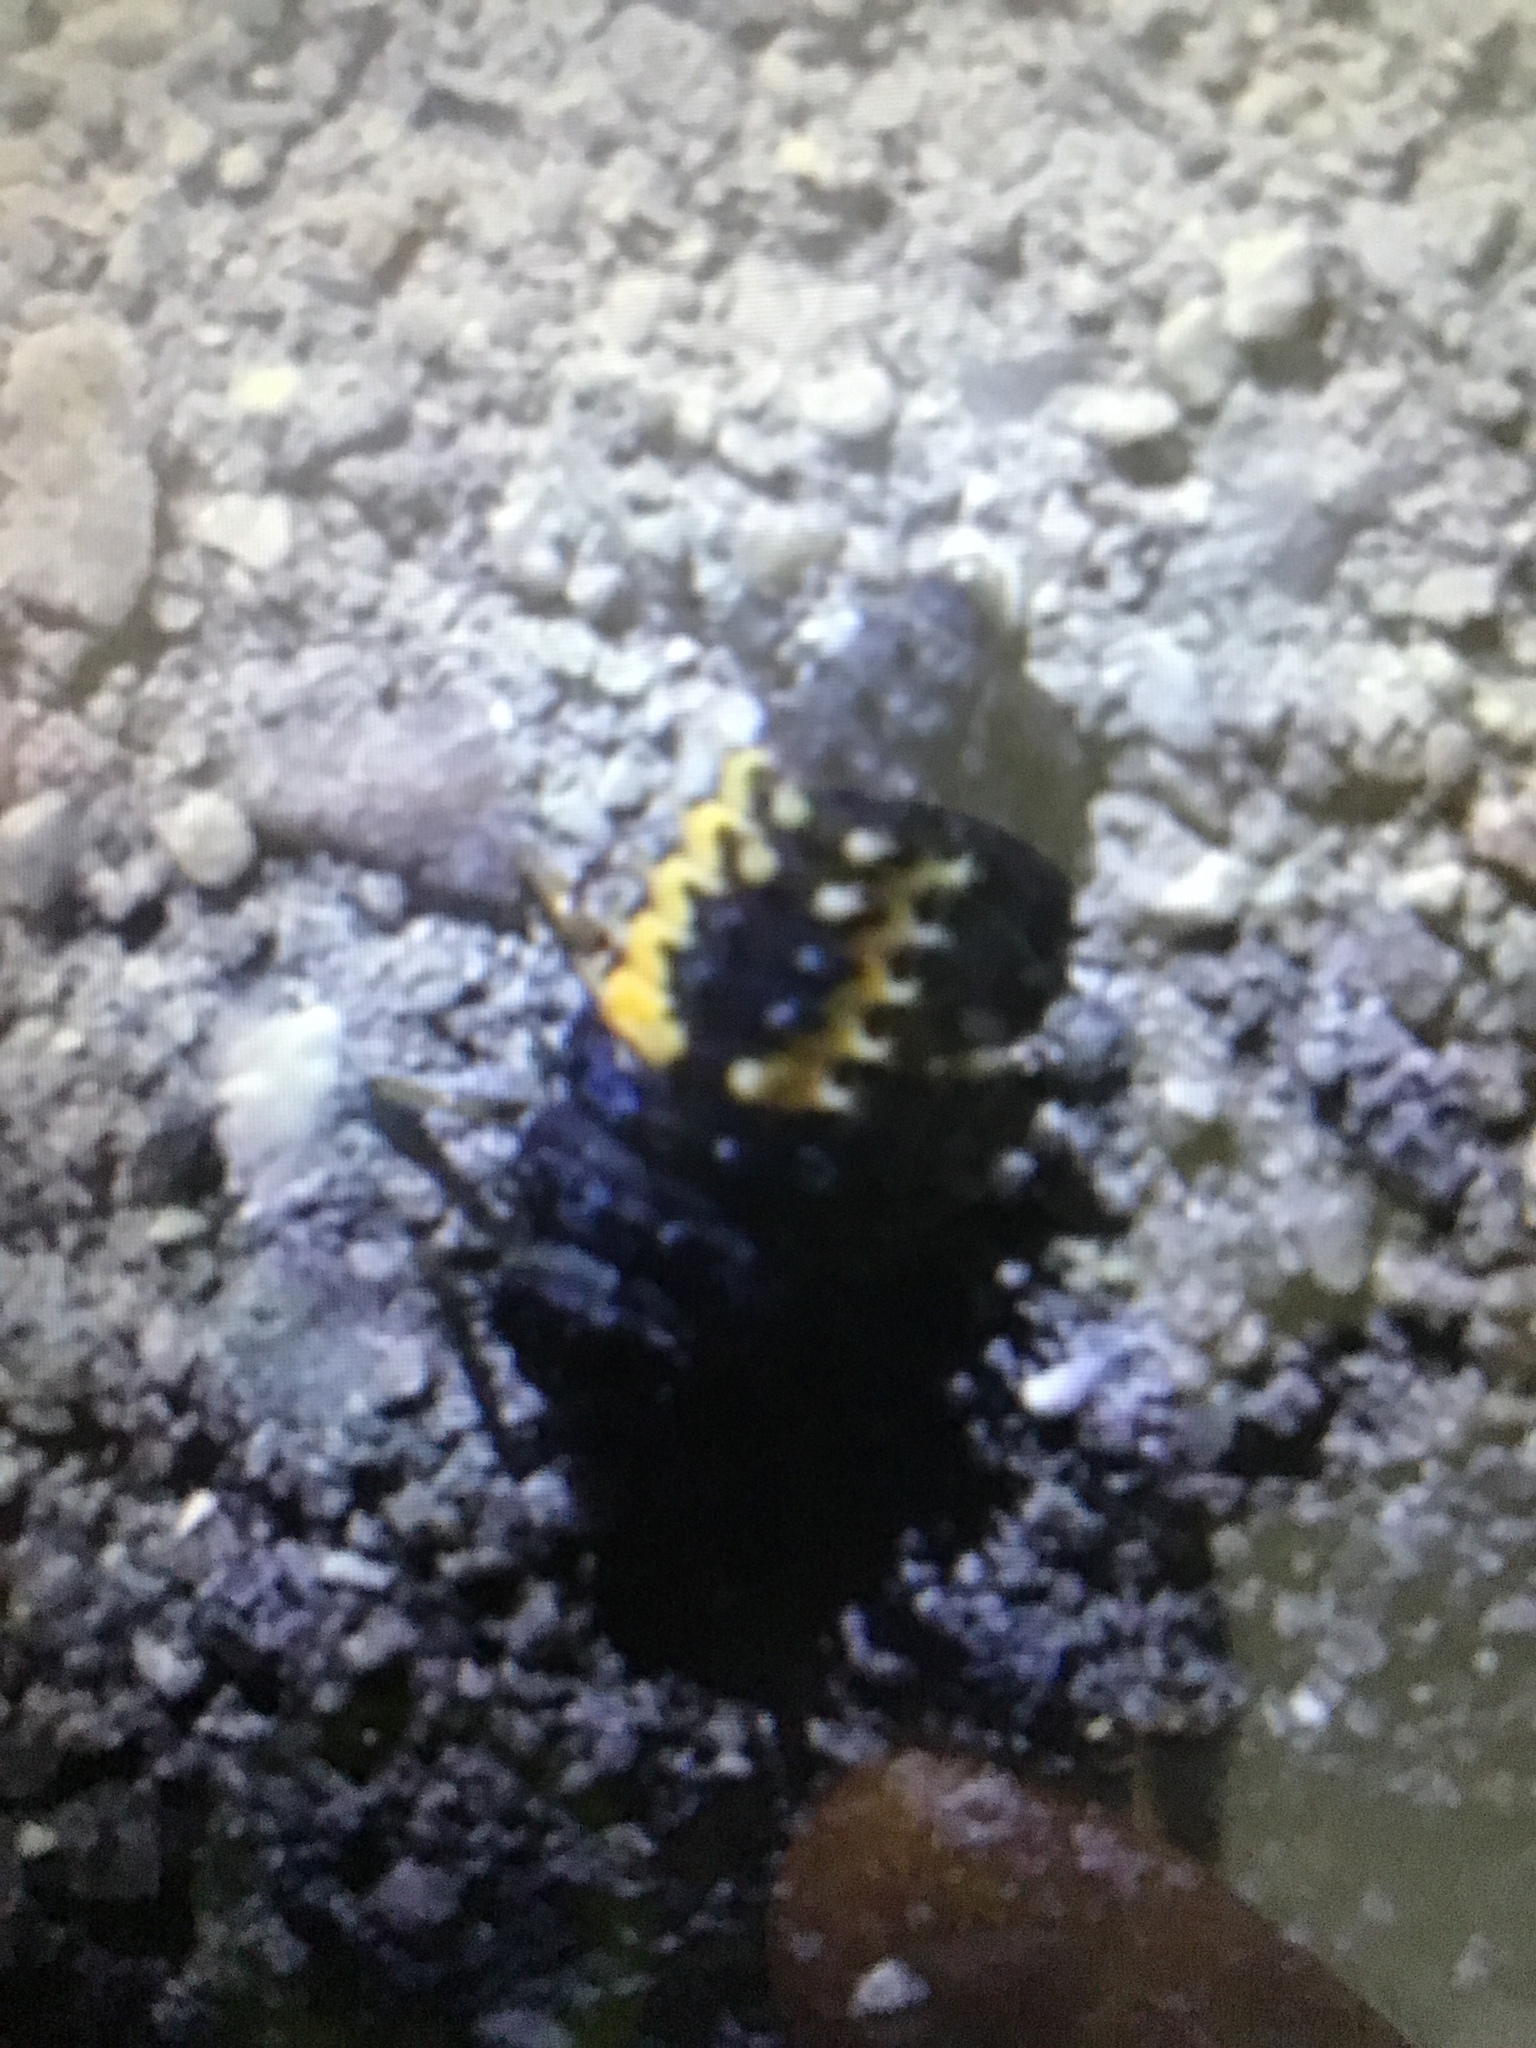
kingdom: Animalia
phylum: Arthropoda
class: Insecta
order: Coleoptera
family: Coccinellidae
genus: Harmonia
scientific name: Harmonia axyridis
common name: Harlequin ladybird
